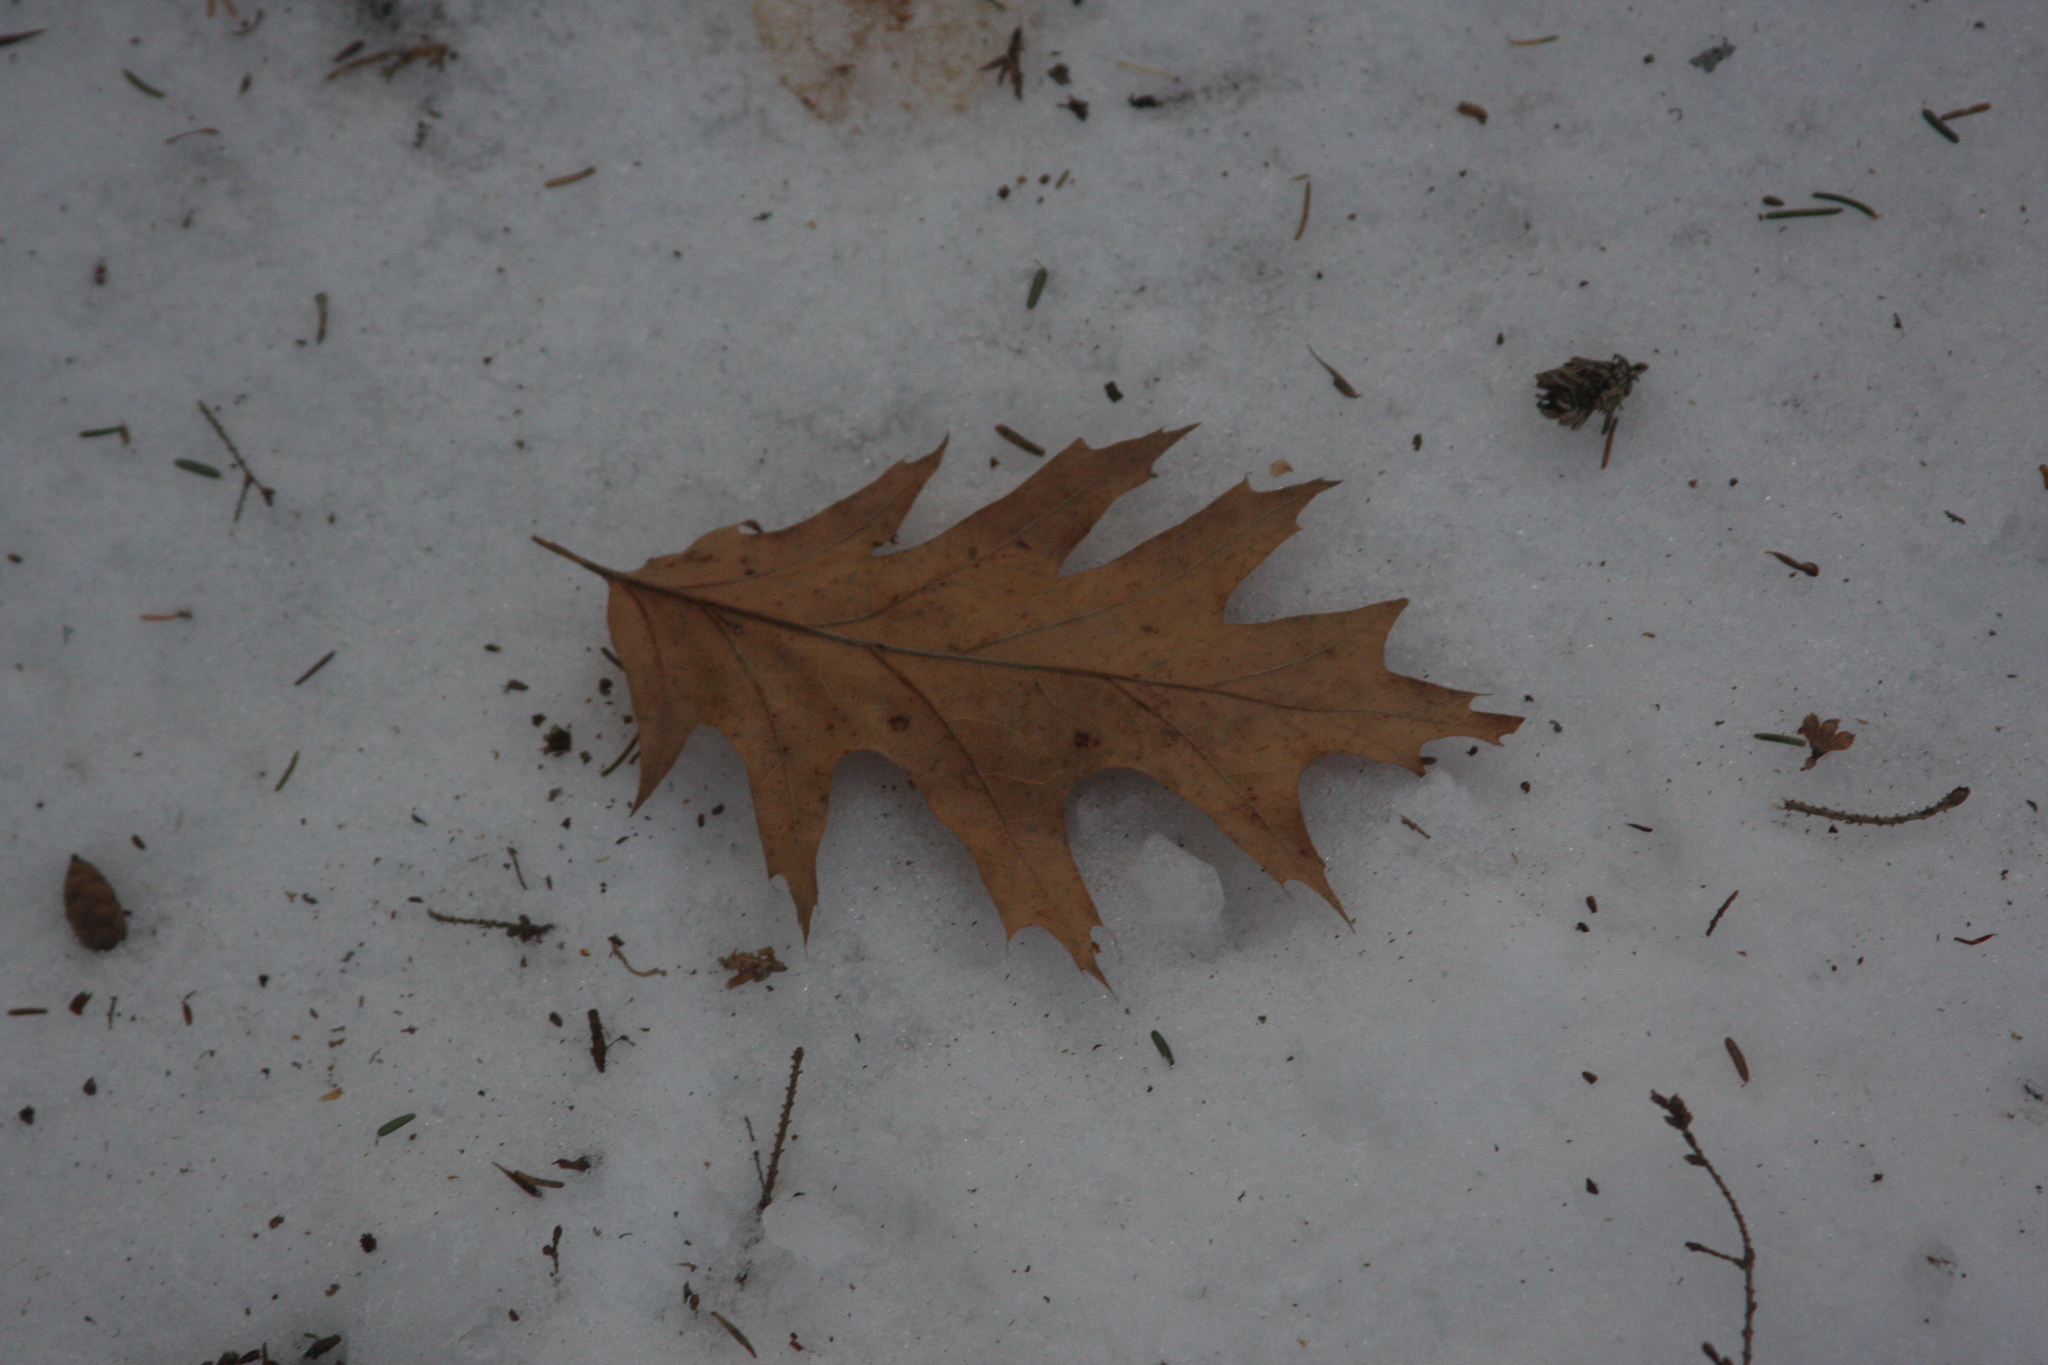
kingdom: Plantae
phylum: Tracheophyta
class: Magnoliopsida
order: Fagales
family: Fagaceae
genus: Quercus
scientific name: Quercus rubra
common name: Red oak
